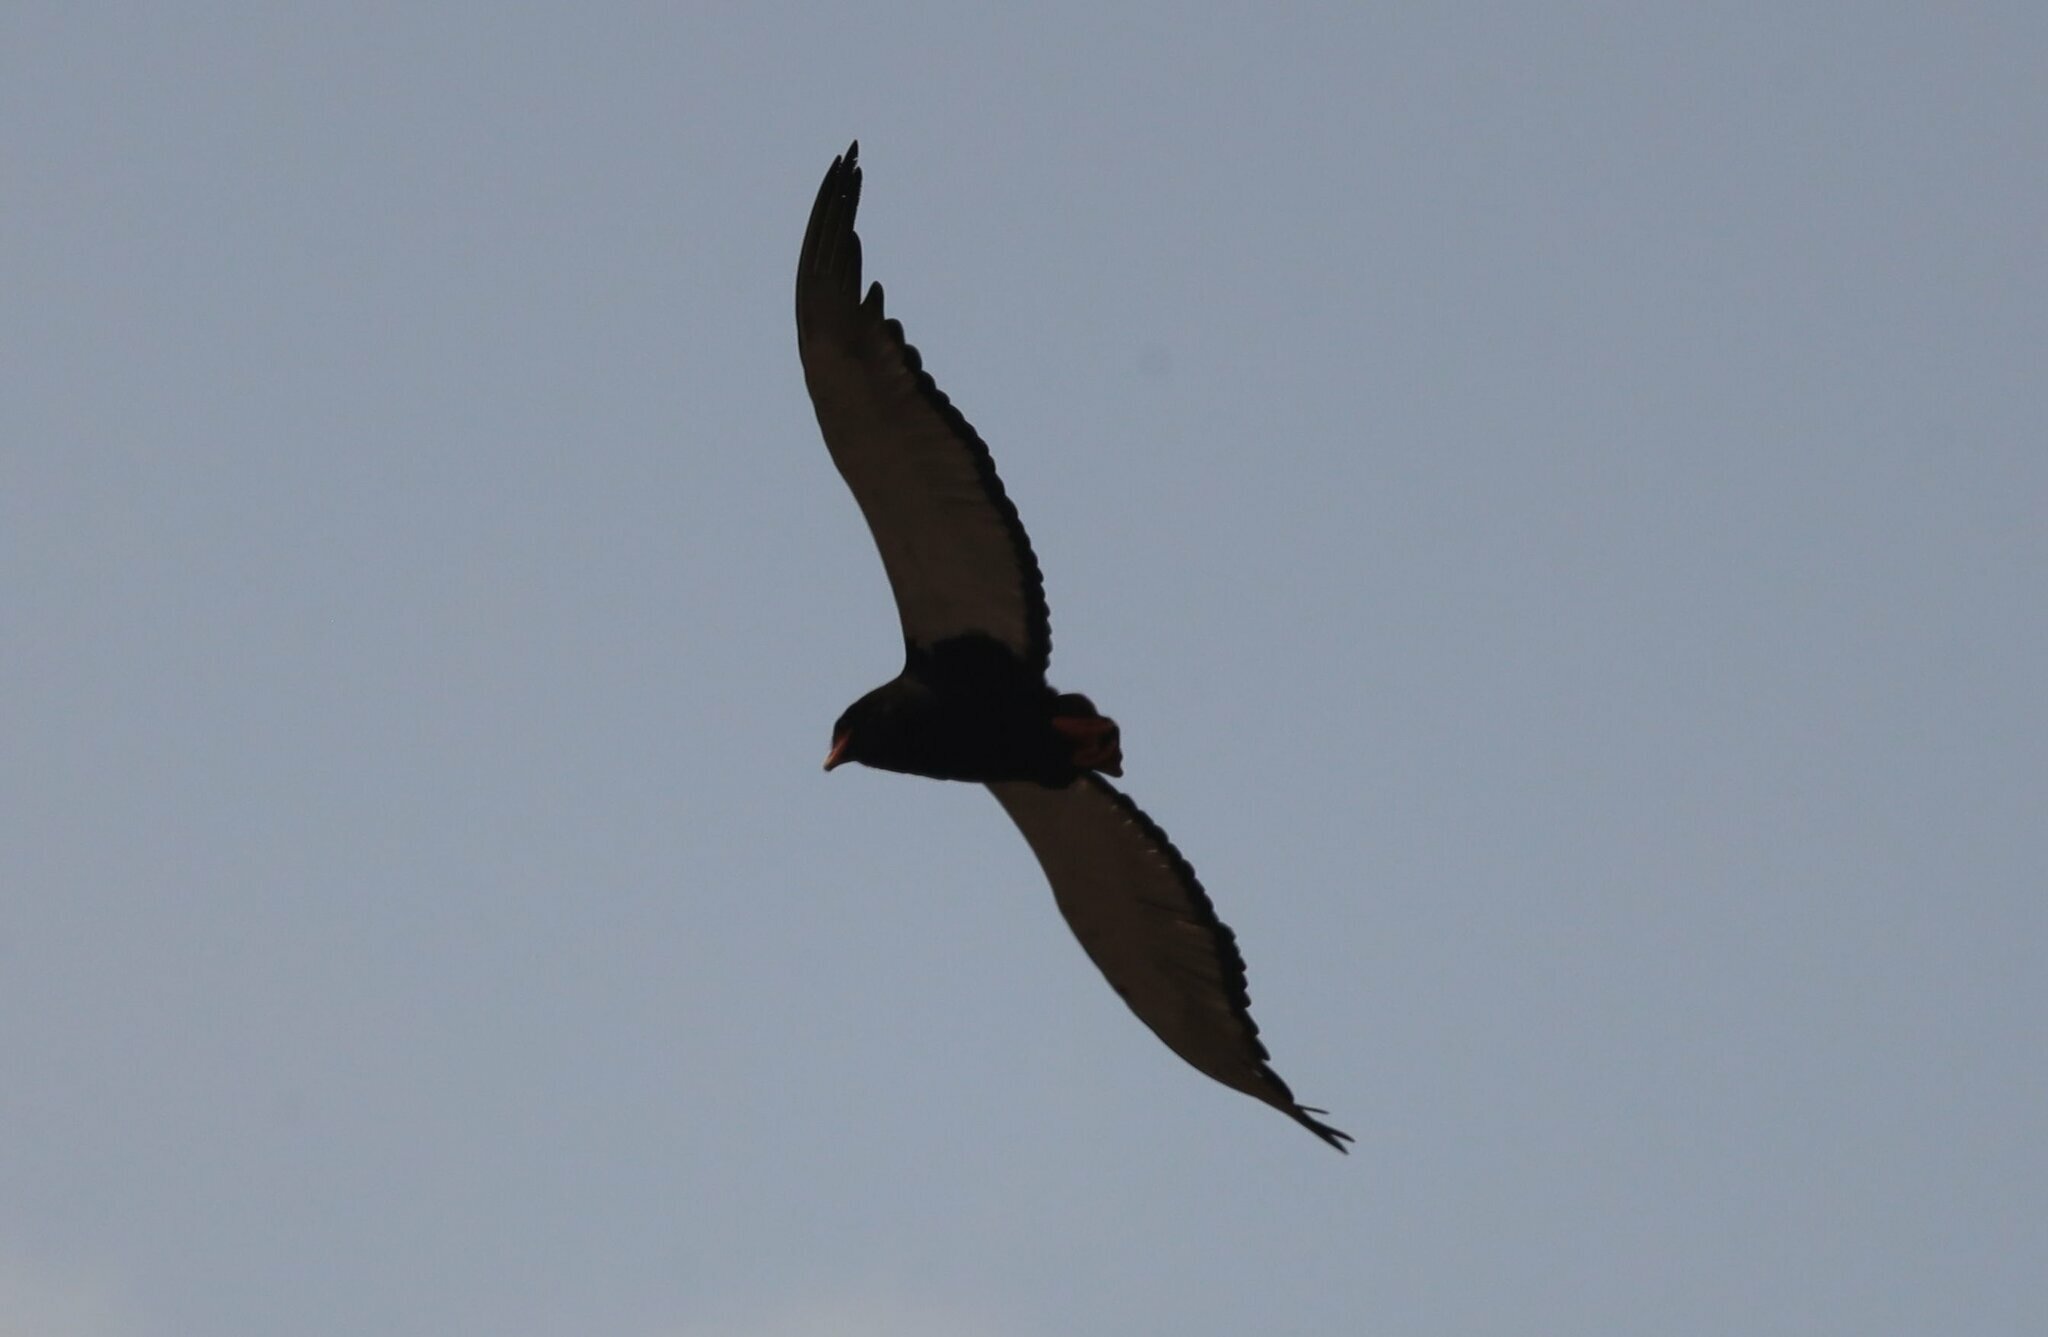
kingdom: Animalia
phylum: Chordata
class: Aves
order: Accipitriformes
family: Accipitridae
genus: Terathopius
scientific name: Terathopius ecaudatus
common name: Bateleur
